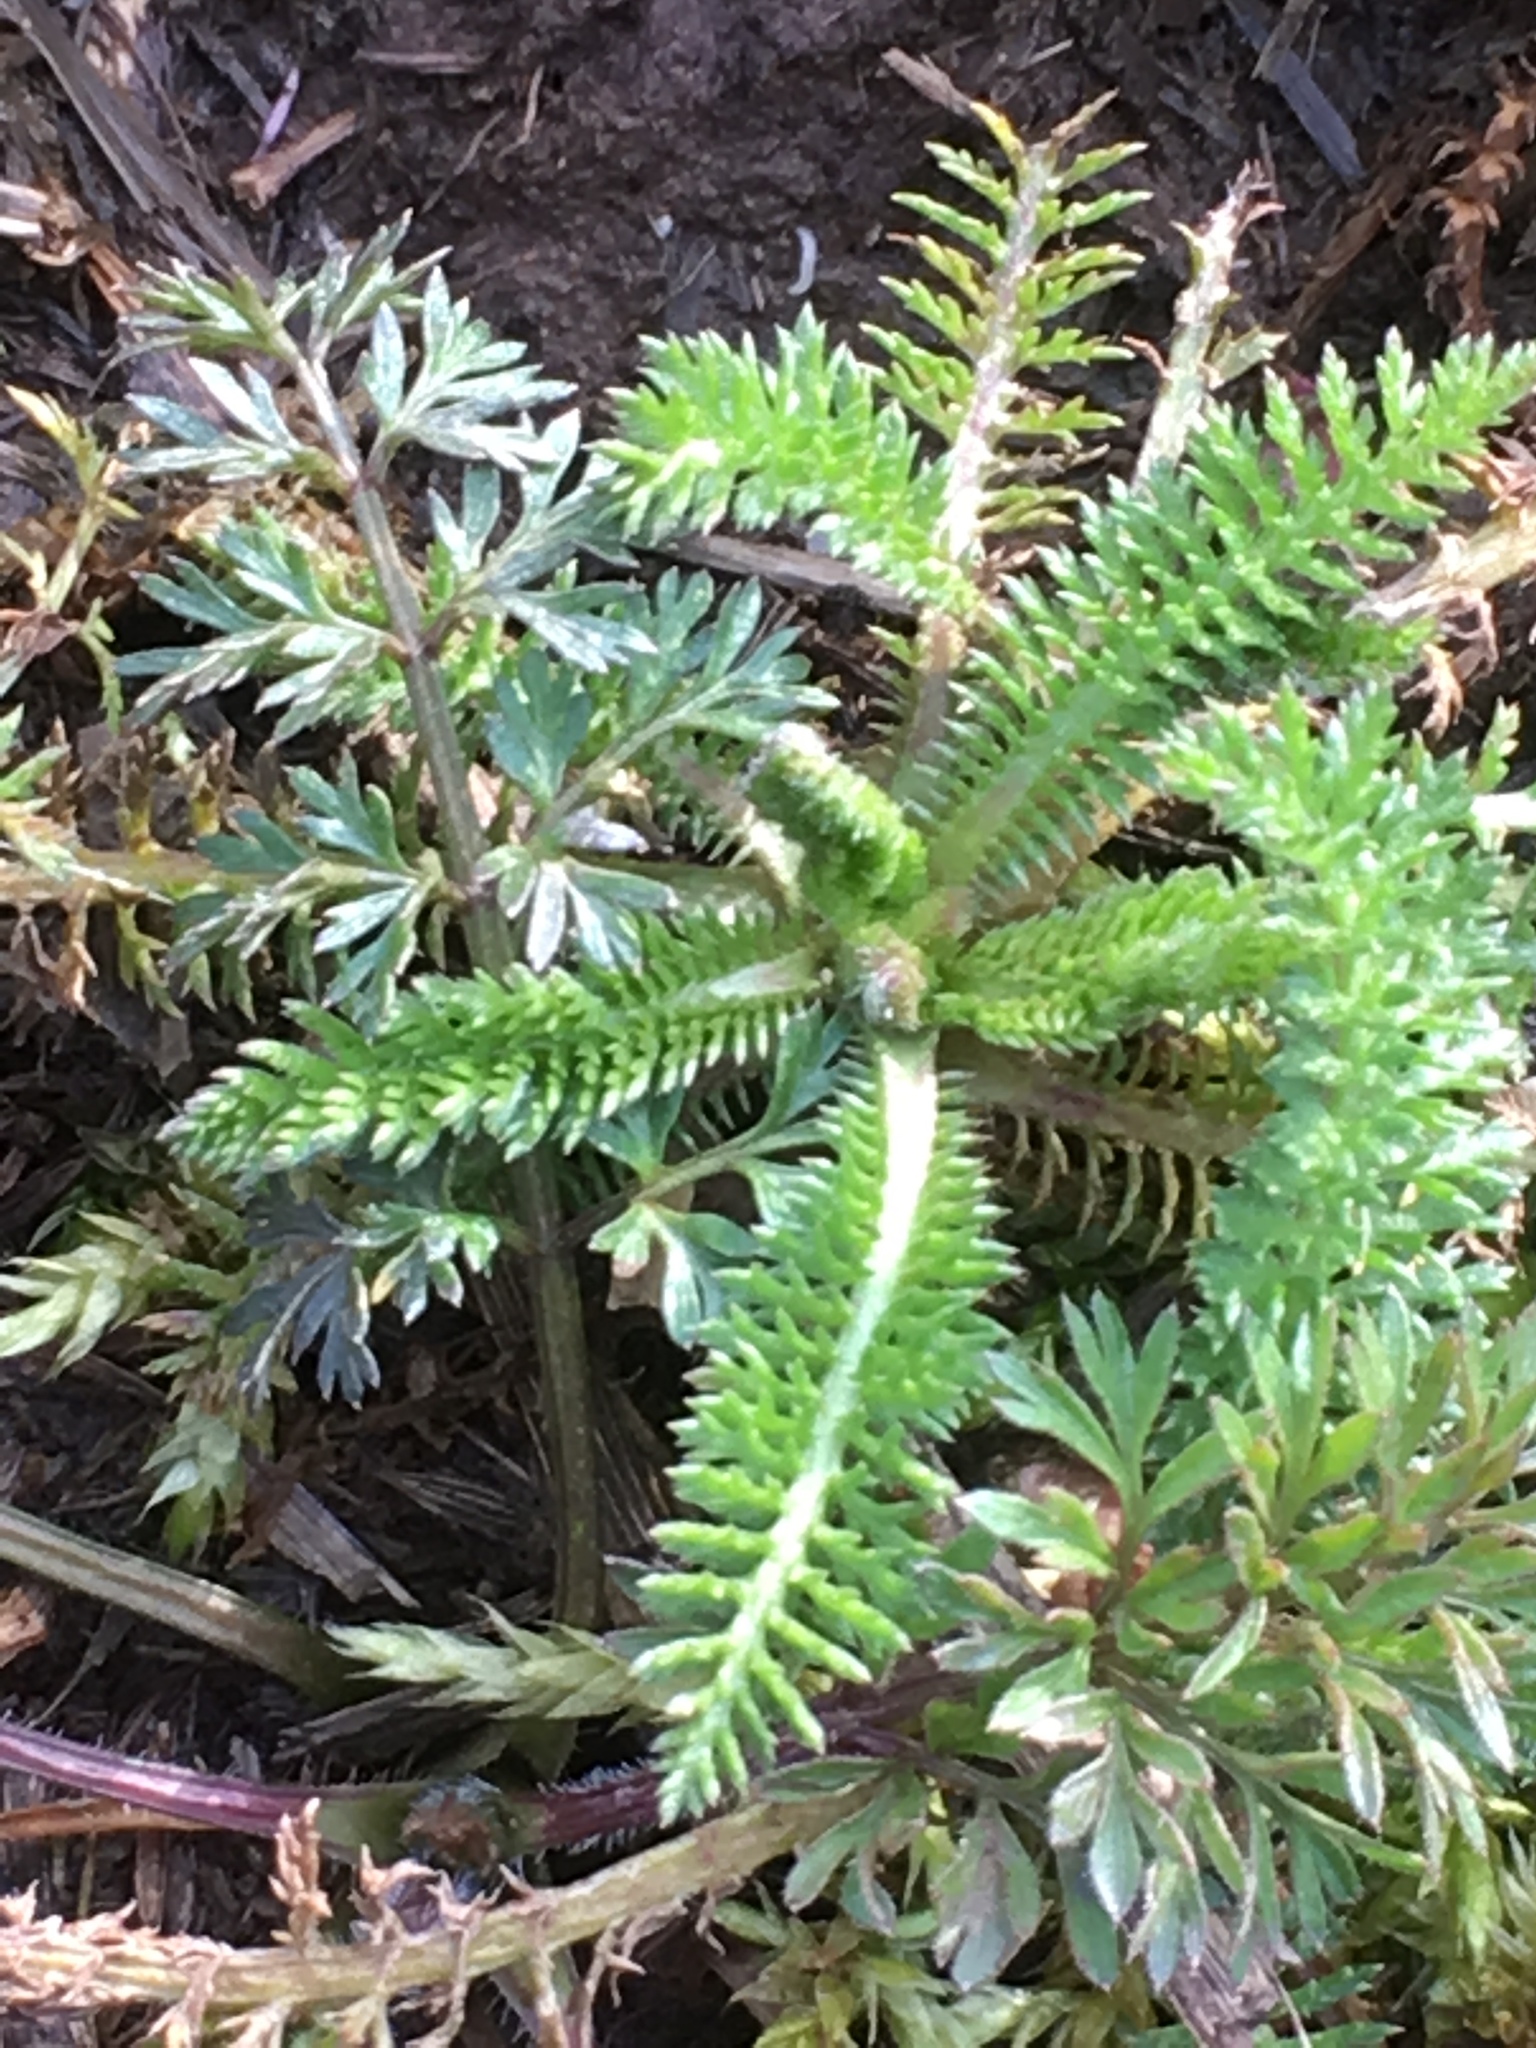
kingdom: Plantae
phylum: Tracheophyta
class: Magnoliopsida
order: Asterales
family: Asteraceae
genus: Achillea
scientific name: Achillea millefolium
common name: Yarrow
